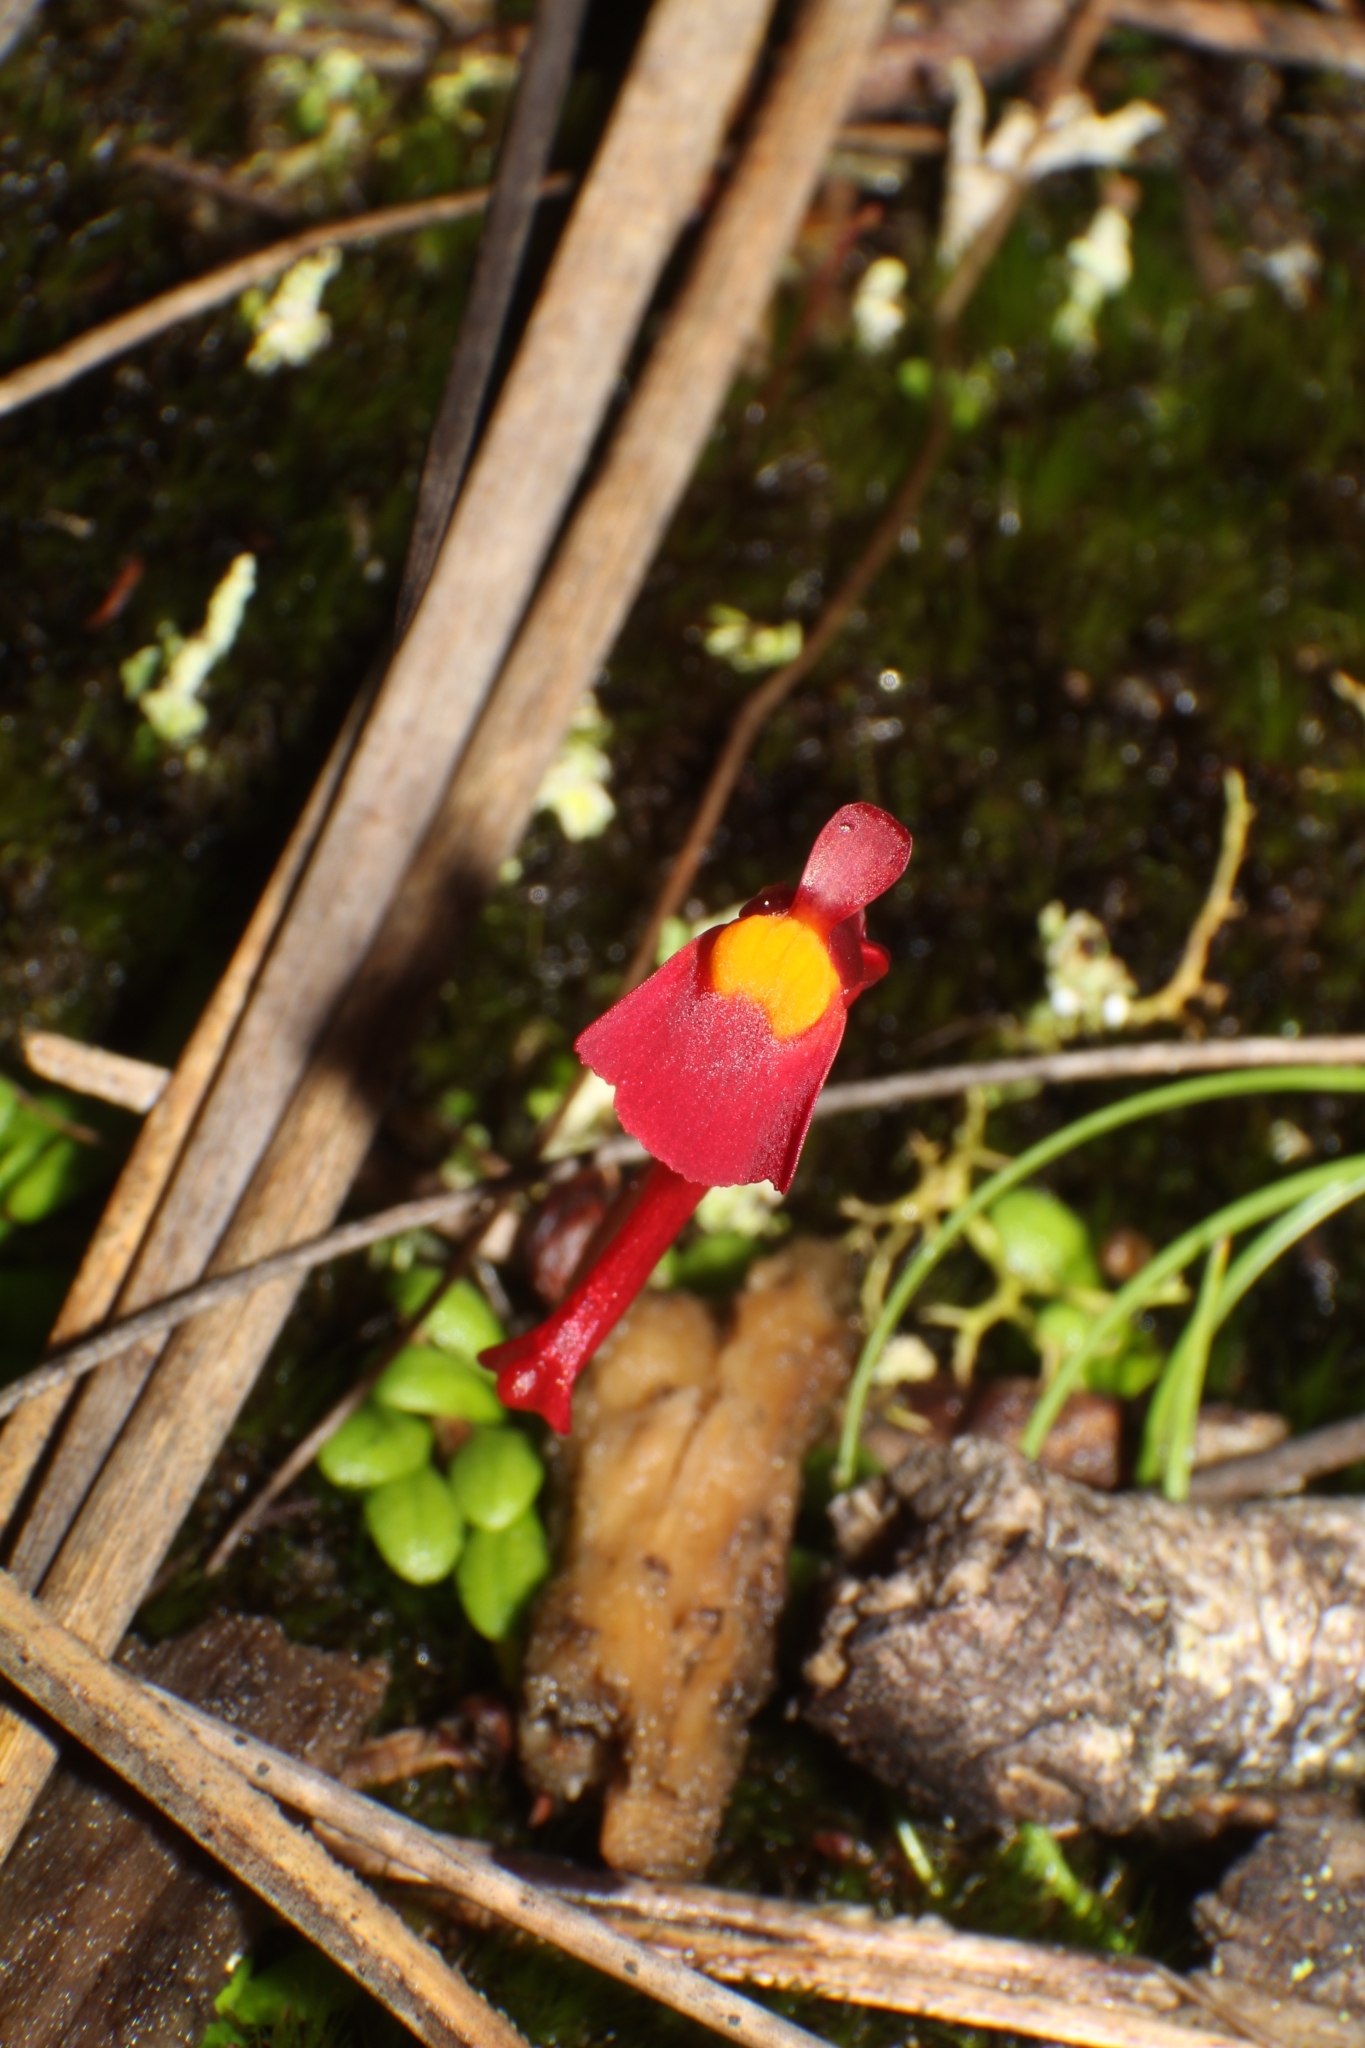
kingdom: Plantae
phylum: Tracheophyta
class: Magnoliopsida
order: Lamiales
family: Lentibulariaceae
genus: Utricularia
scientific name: Utricularia menziesii
